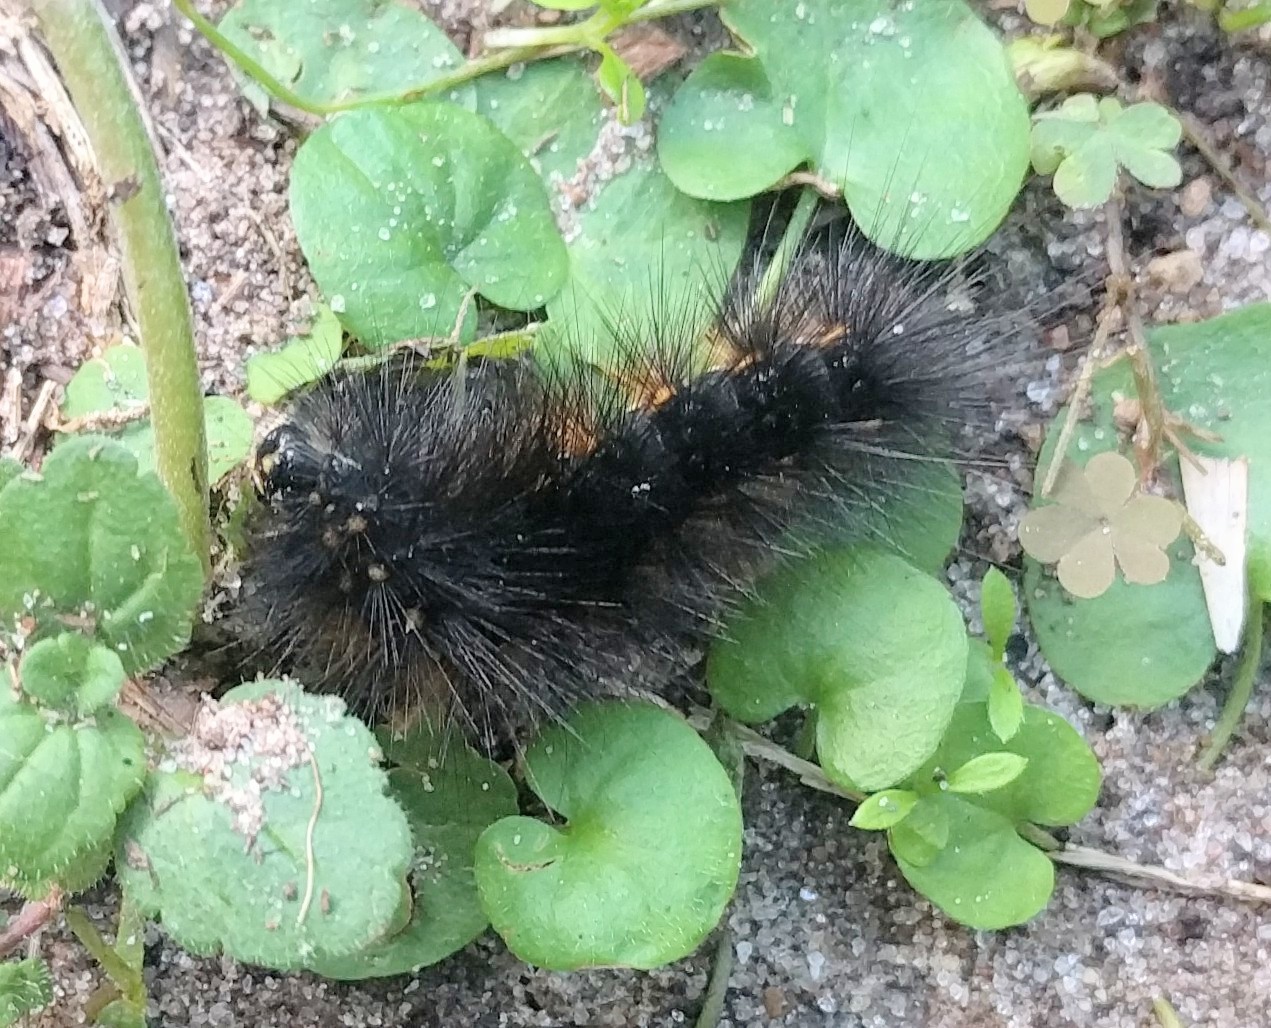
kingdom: Animalia
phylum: Arthropoda
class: Insecta
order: Lepidoptera
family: Erebidae
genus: Estigmene
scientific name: Estigmene acrea
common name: Salt marsh moth
